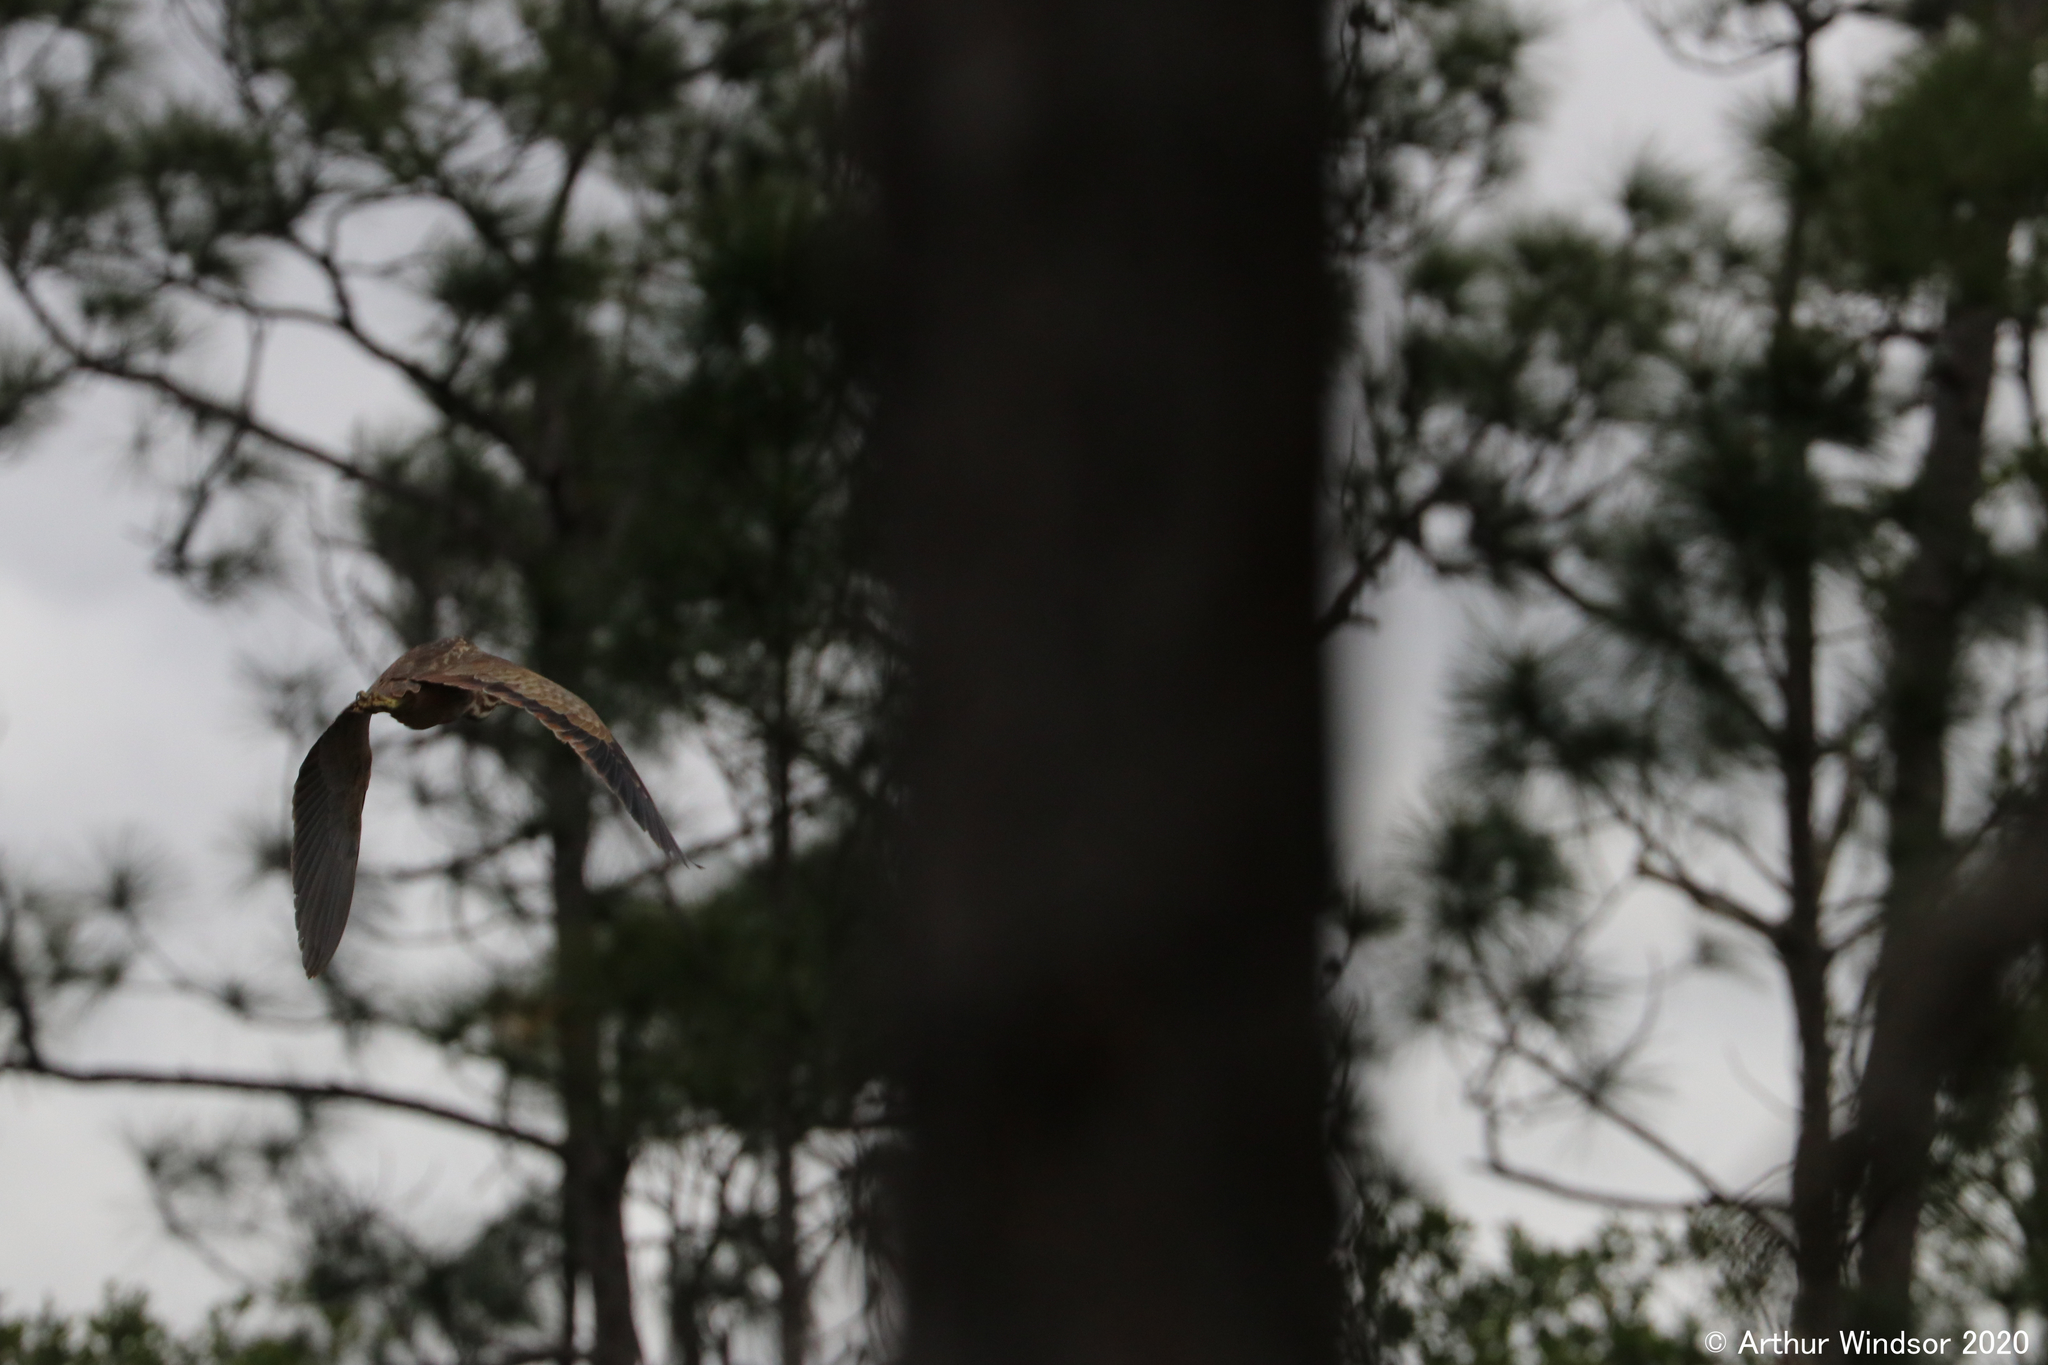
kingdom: Animalia
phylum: Chordata
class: Aves
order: Pelecaniformes
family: Ardeidae
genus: Botaurus
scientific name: Botaurus lentiginosus
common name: American bittern
